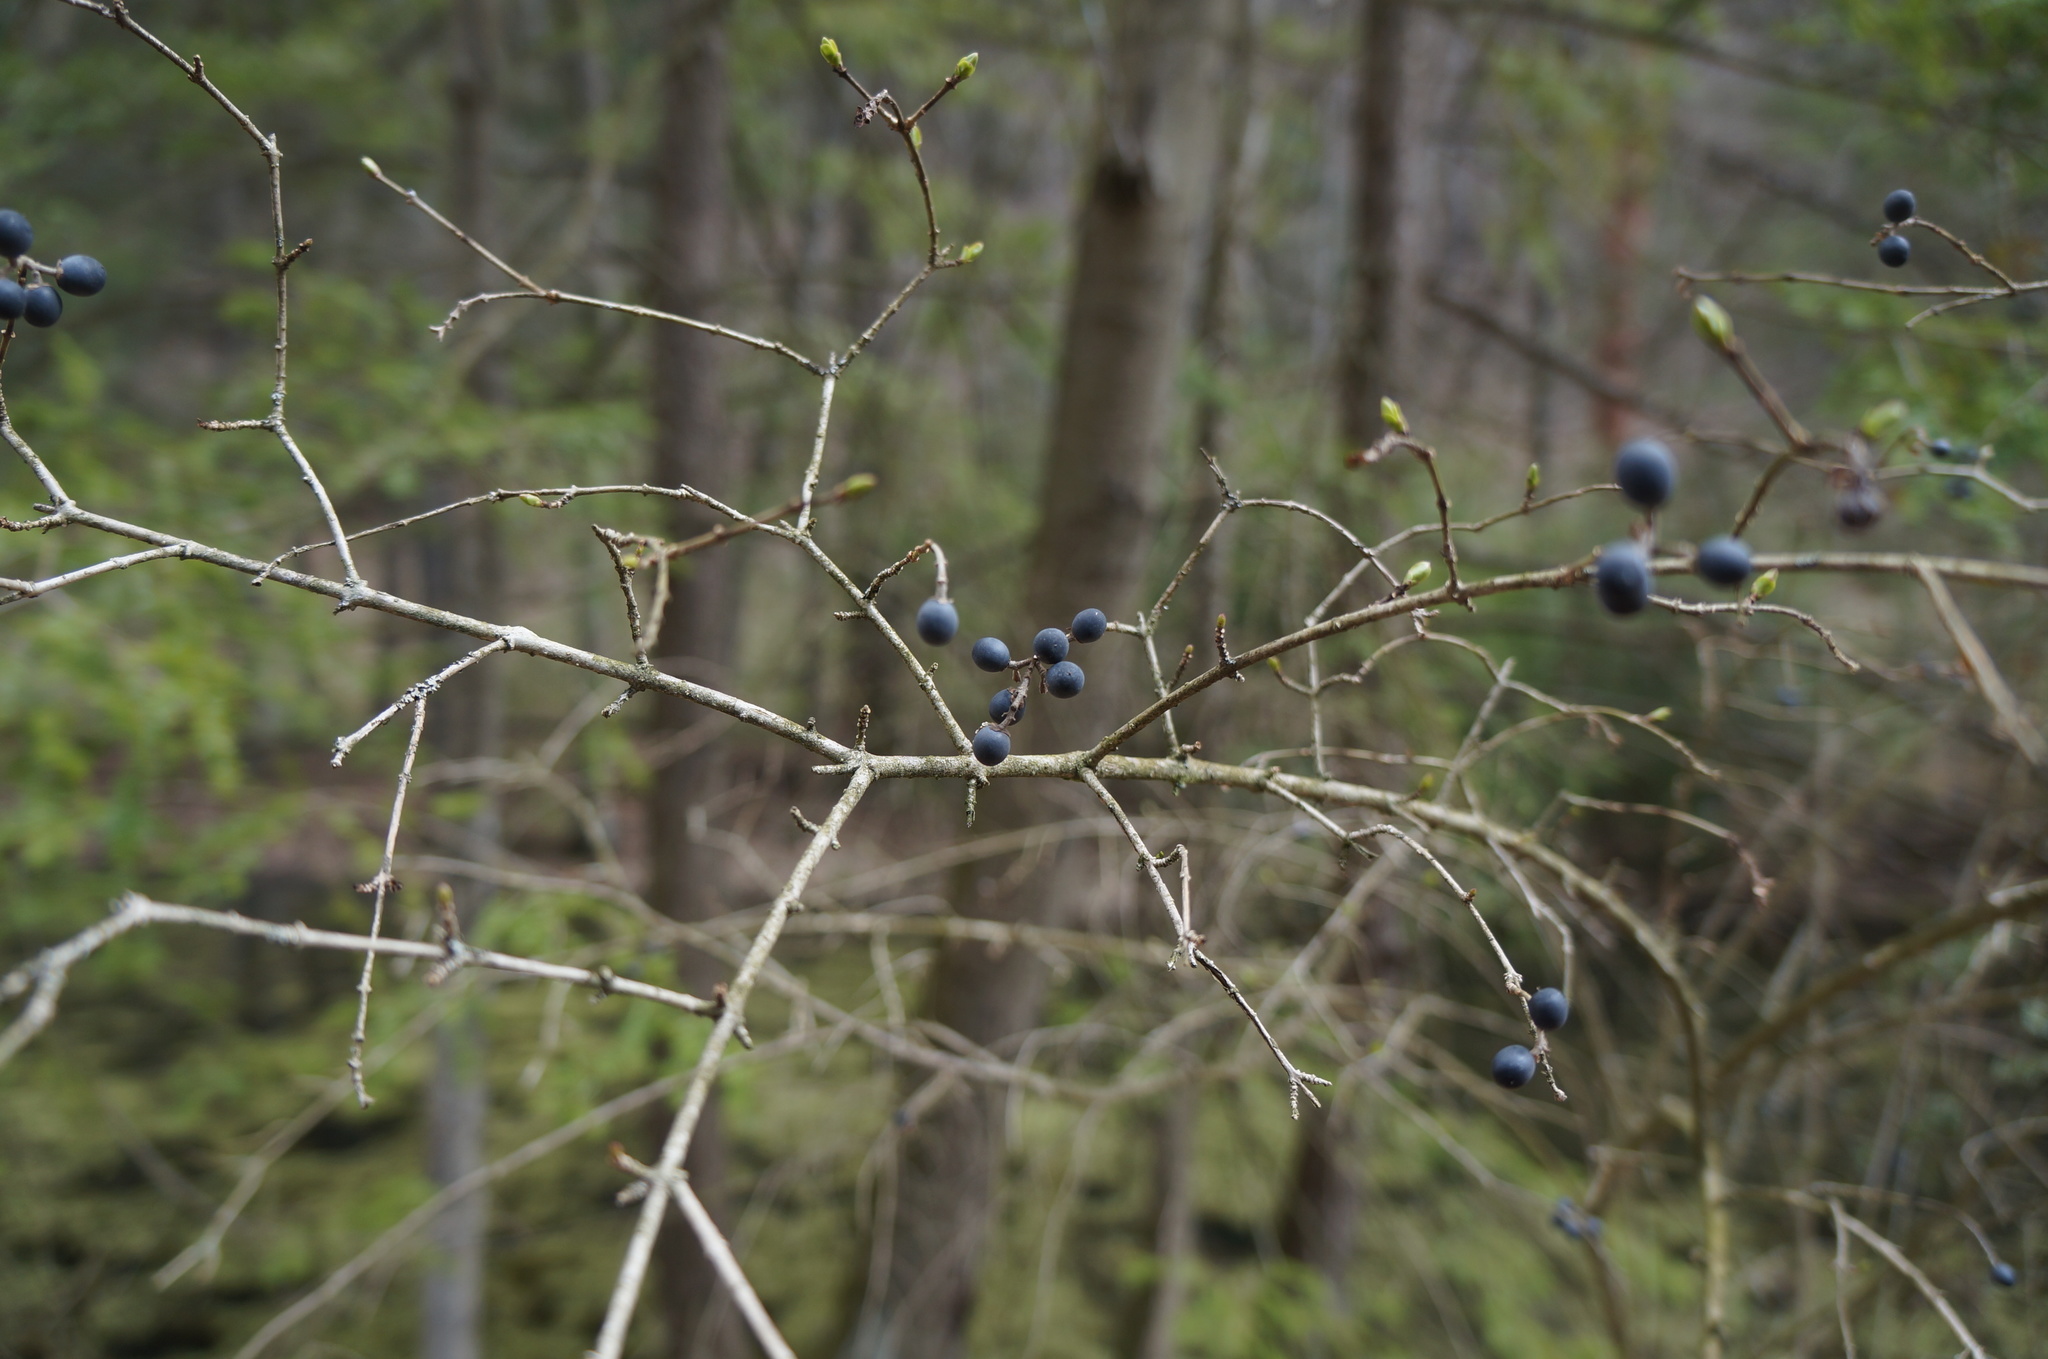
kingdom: Plantae
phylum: Tracheophyta
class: Magnoliopsida
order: Lamiales
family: Oleaceae
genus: Ligustrum
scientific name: Ligustrum obtusifolium
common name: Border privet
